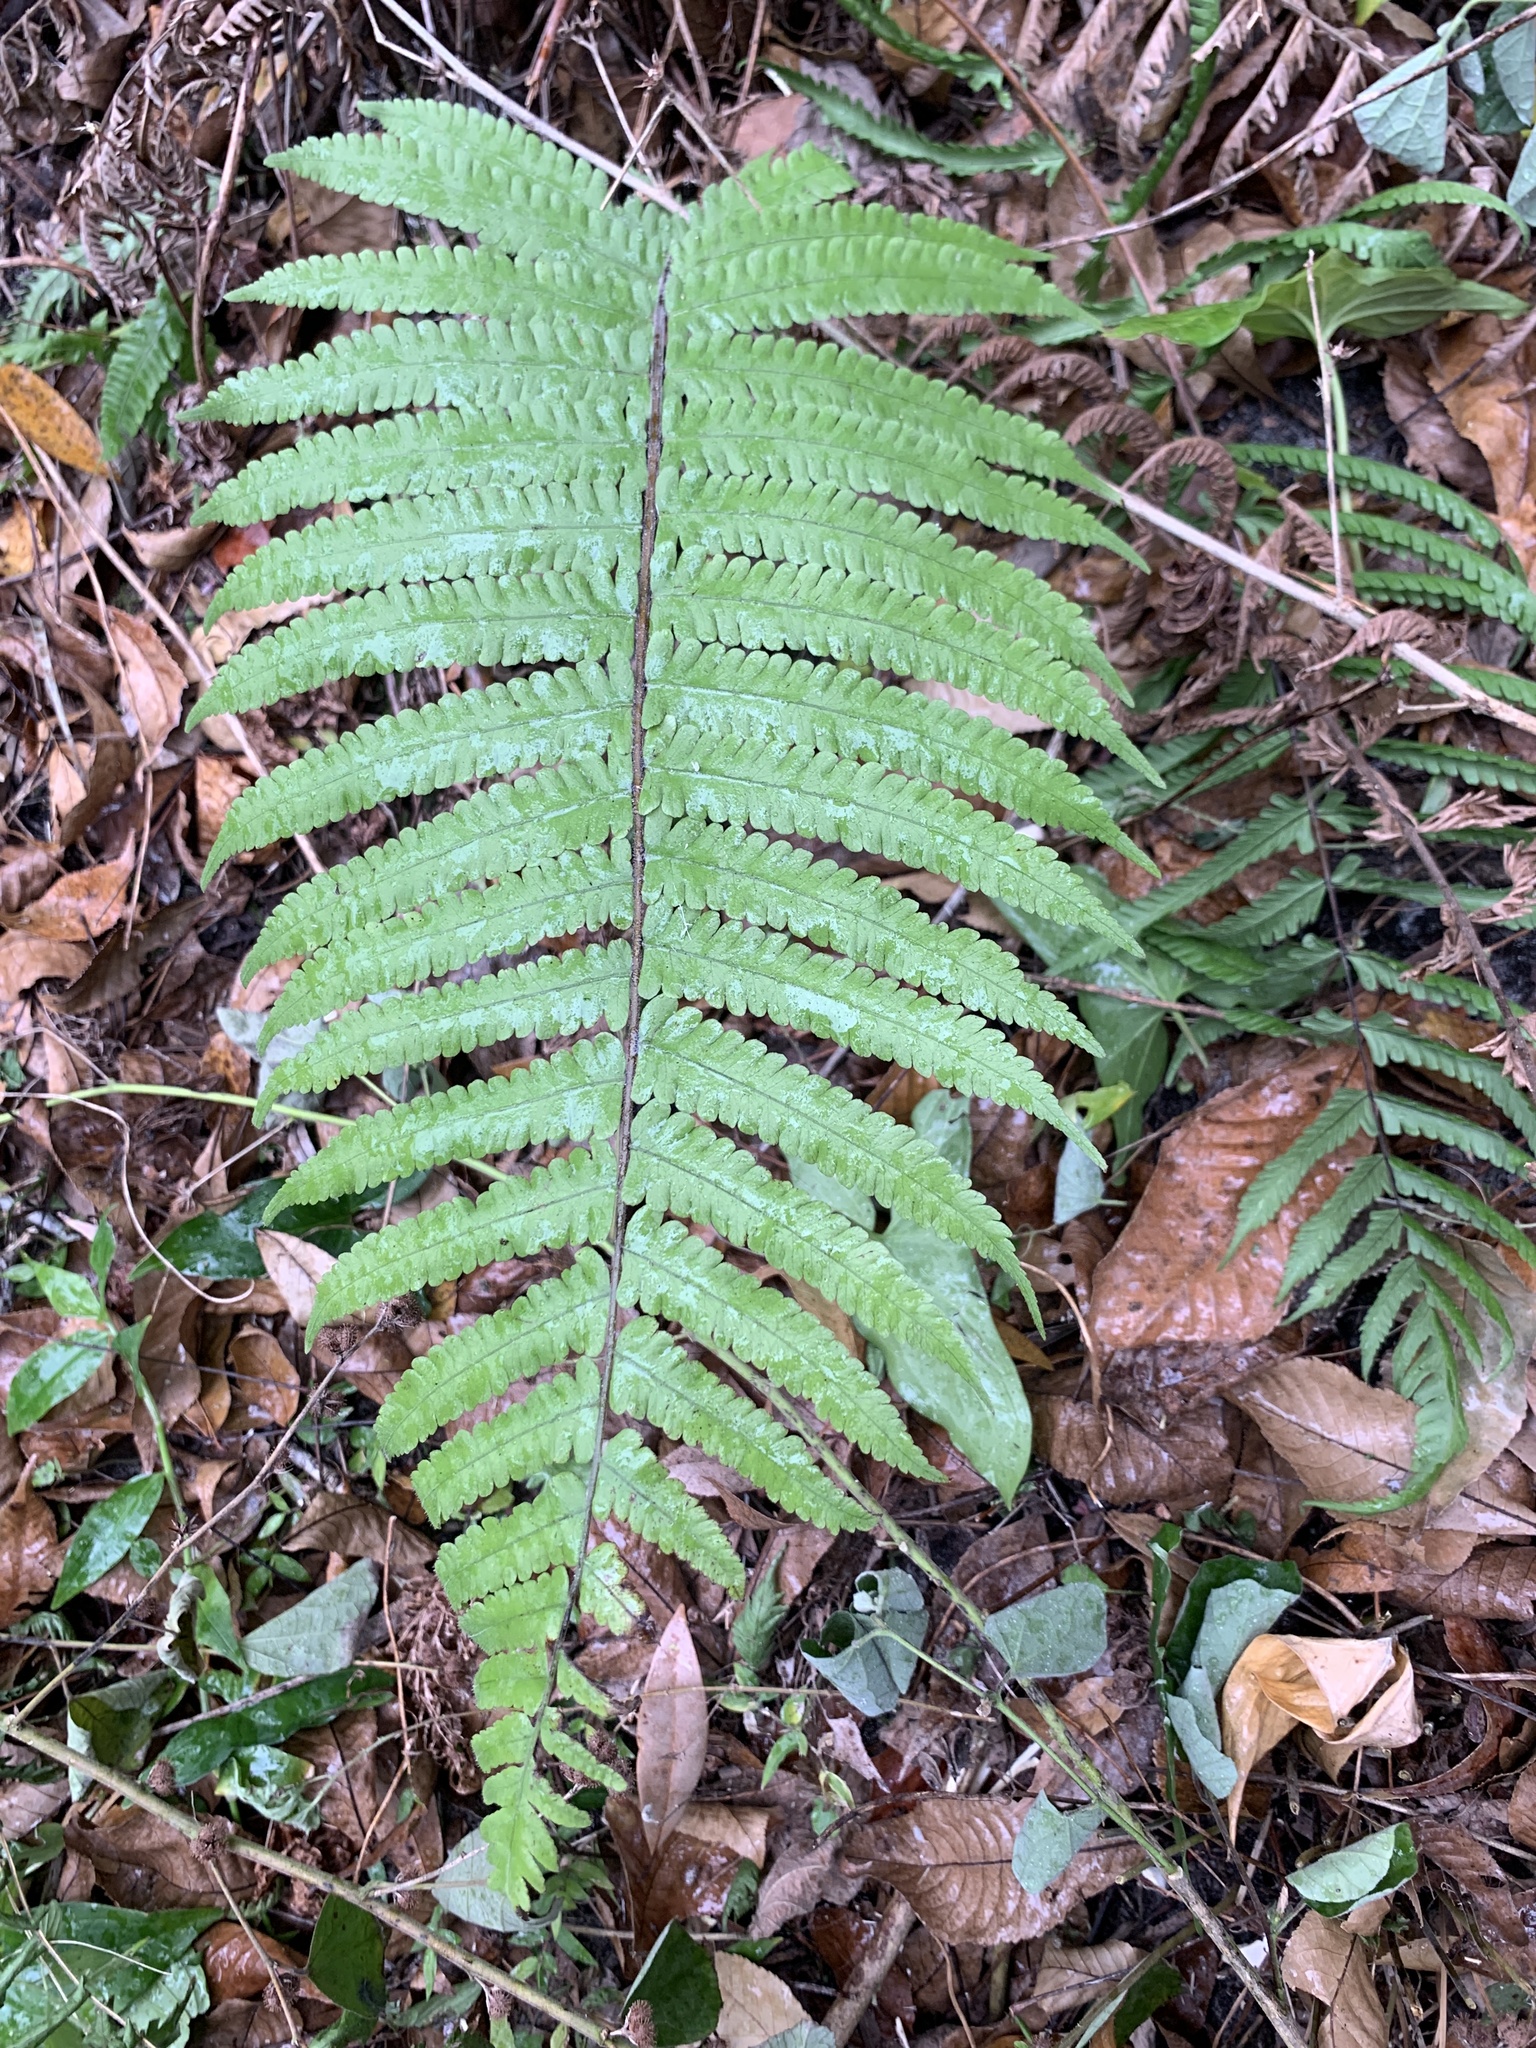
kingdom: Plantae
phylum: Tracheophyta
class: Polypodiopsida
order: Polypodiales
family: Thelypteridaceae
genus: Christella
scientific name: Christella dentata
